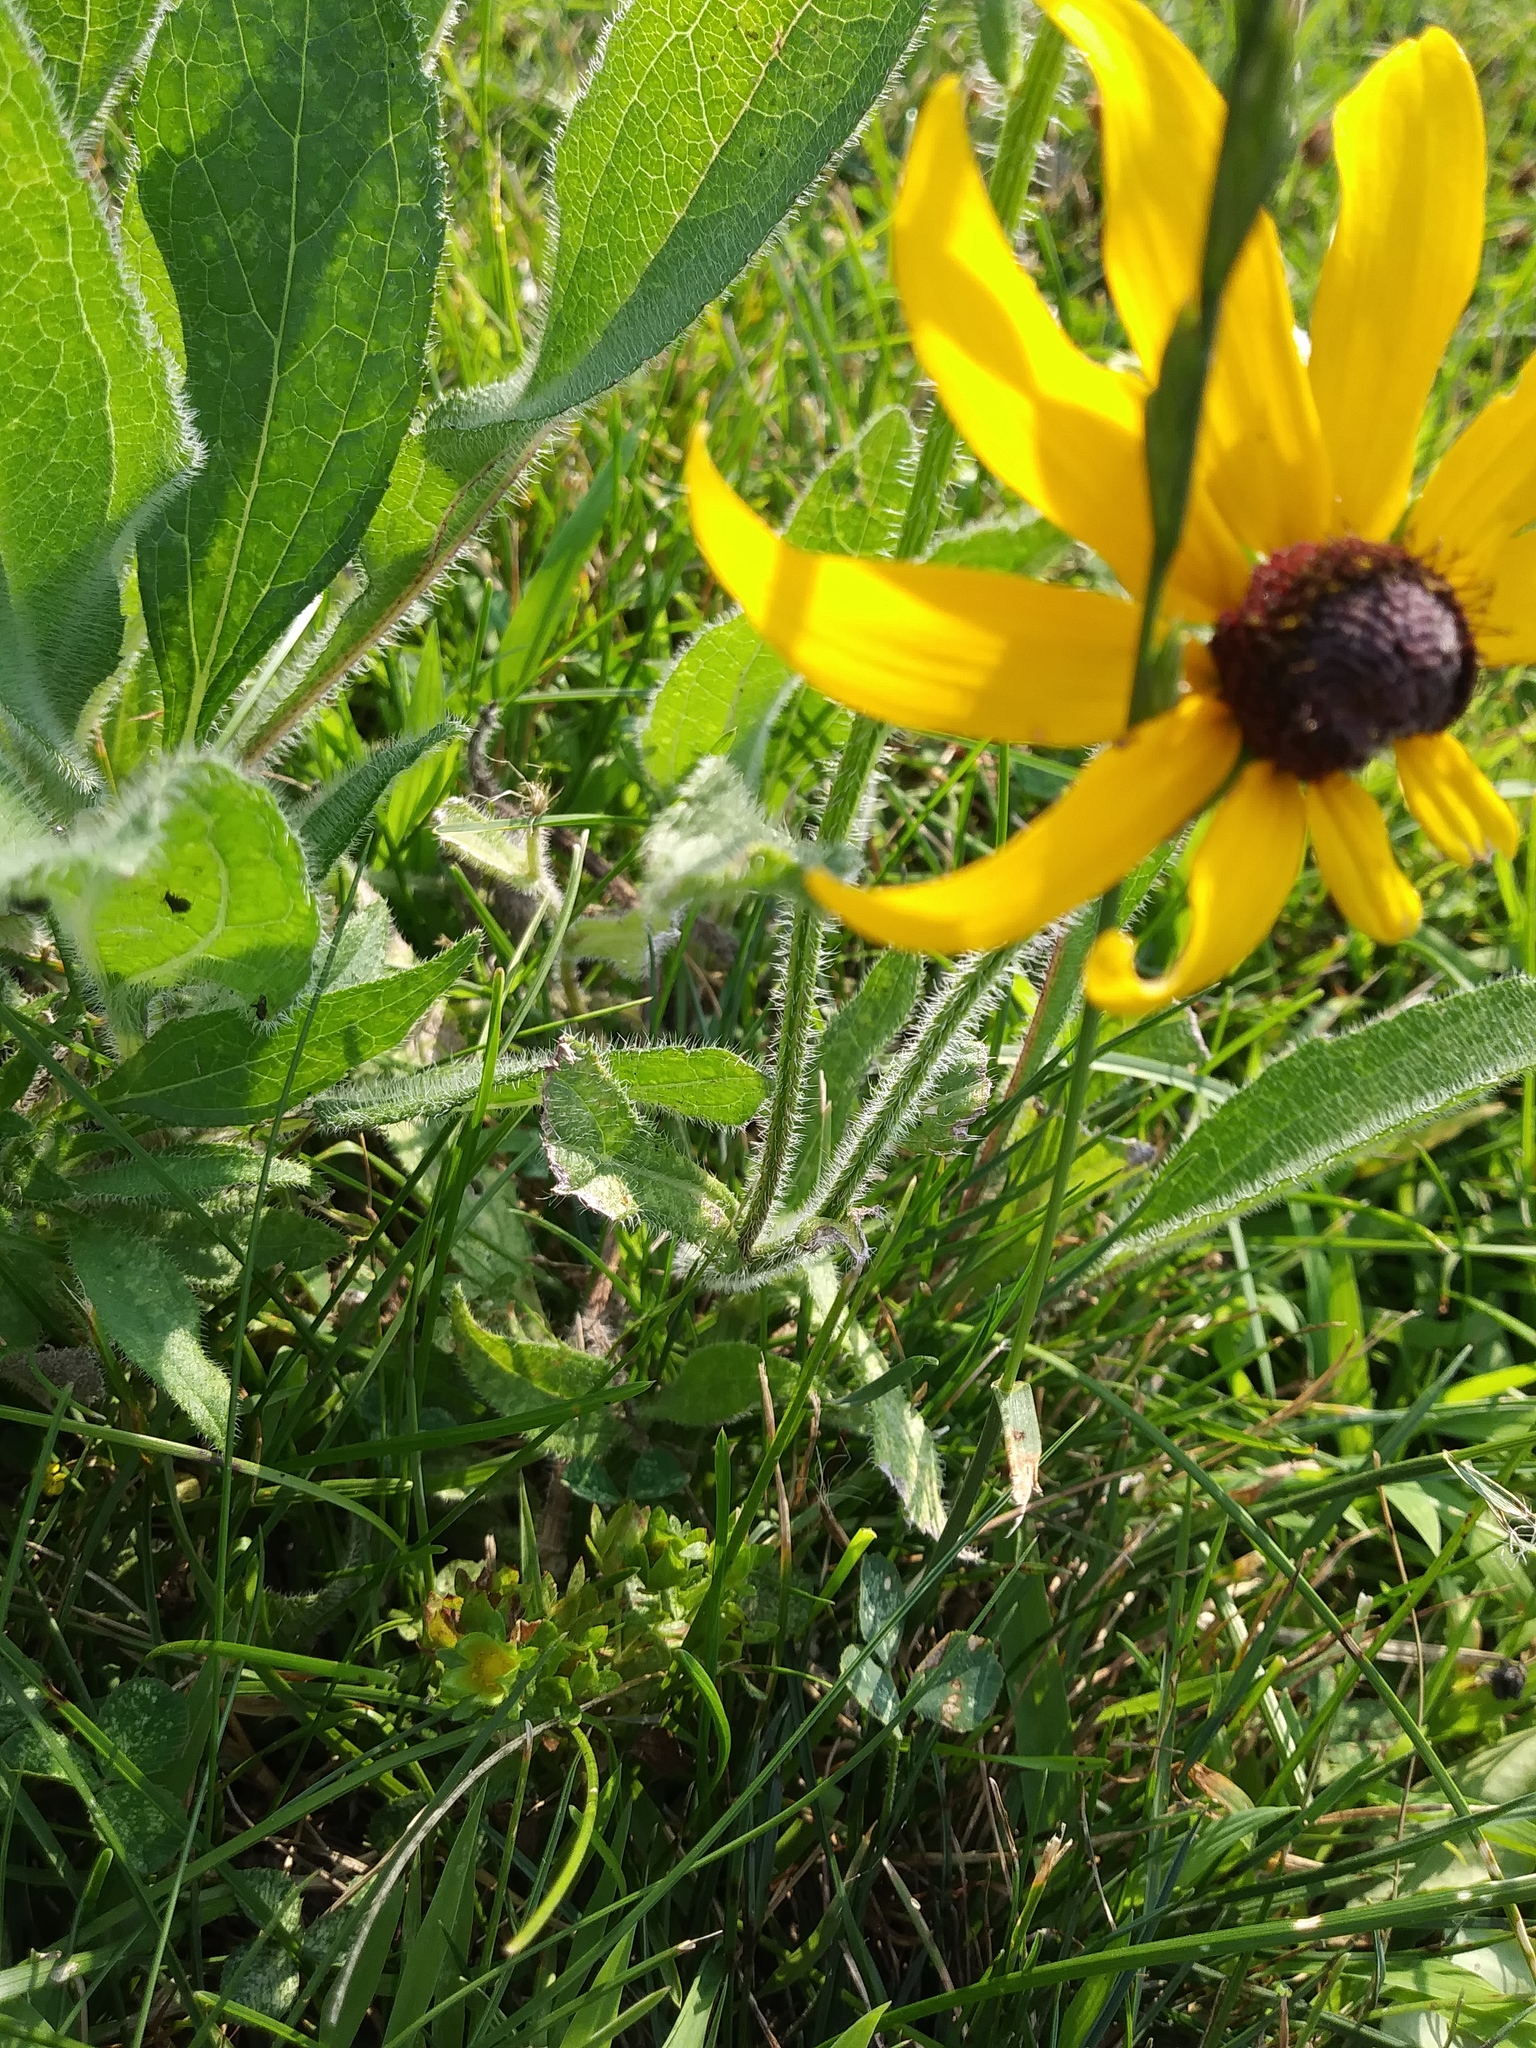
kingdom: Plantae
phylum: Tracheophyta
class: Magnoliopsida
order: Asterales
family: Asteraceae
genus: Rudbeckia
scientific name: Rudbeckia hirta
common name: Black-eyed-susan
